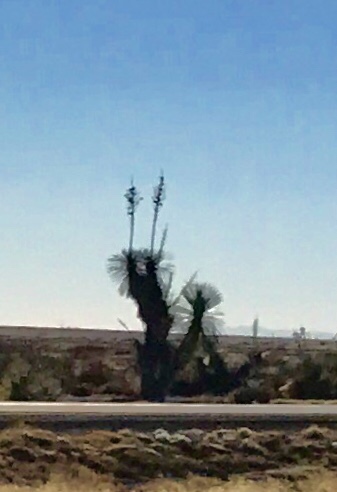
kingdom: Plantae
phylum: Tracheophyta
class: Liliopsida
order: Asparagales
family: Asparagaceae
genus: Yucca
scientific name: Yucca elata
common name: Palmella
